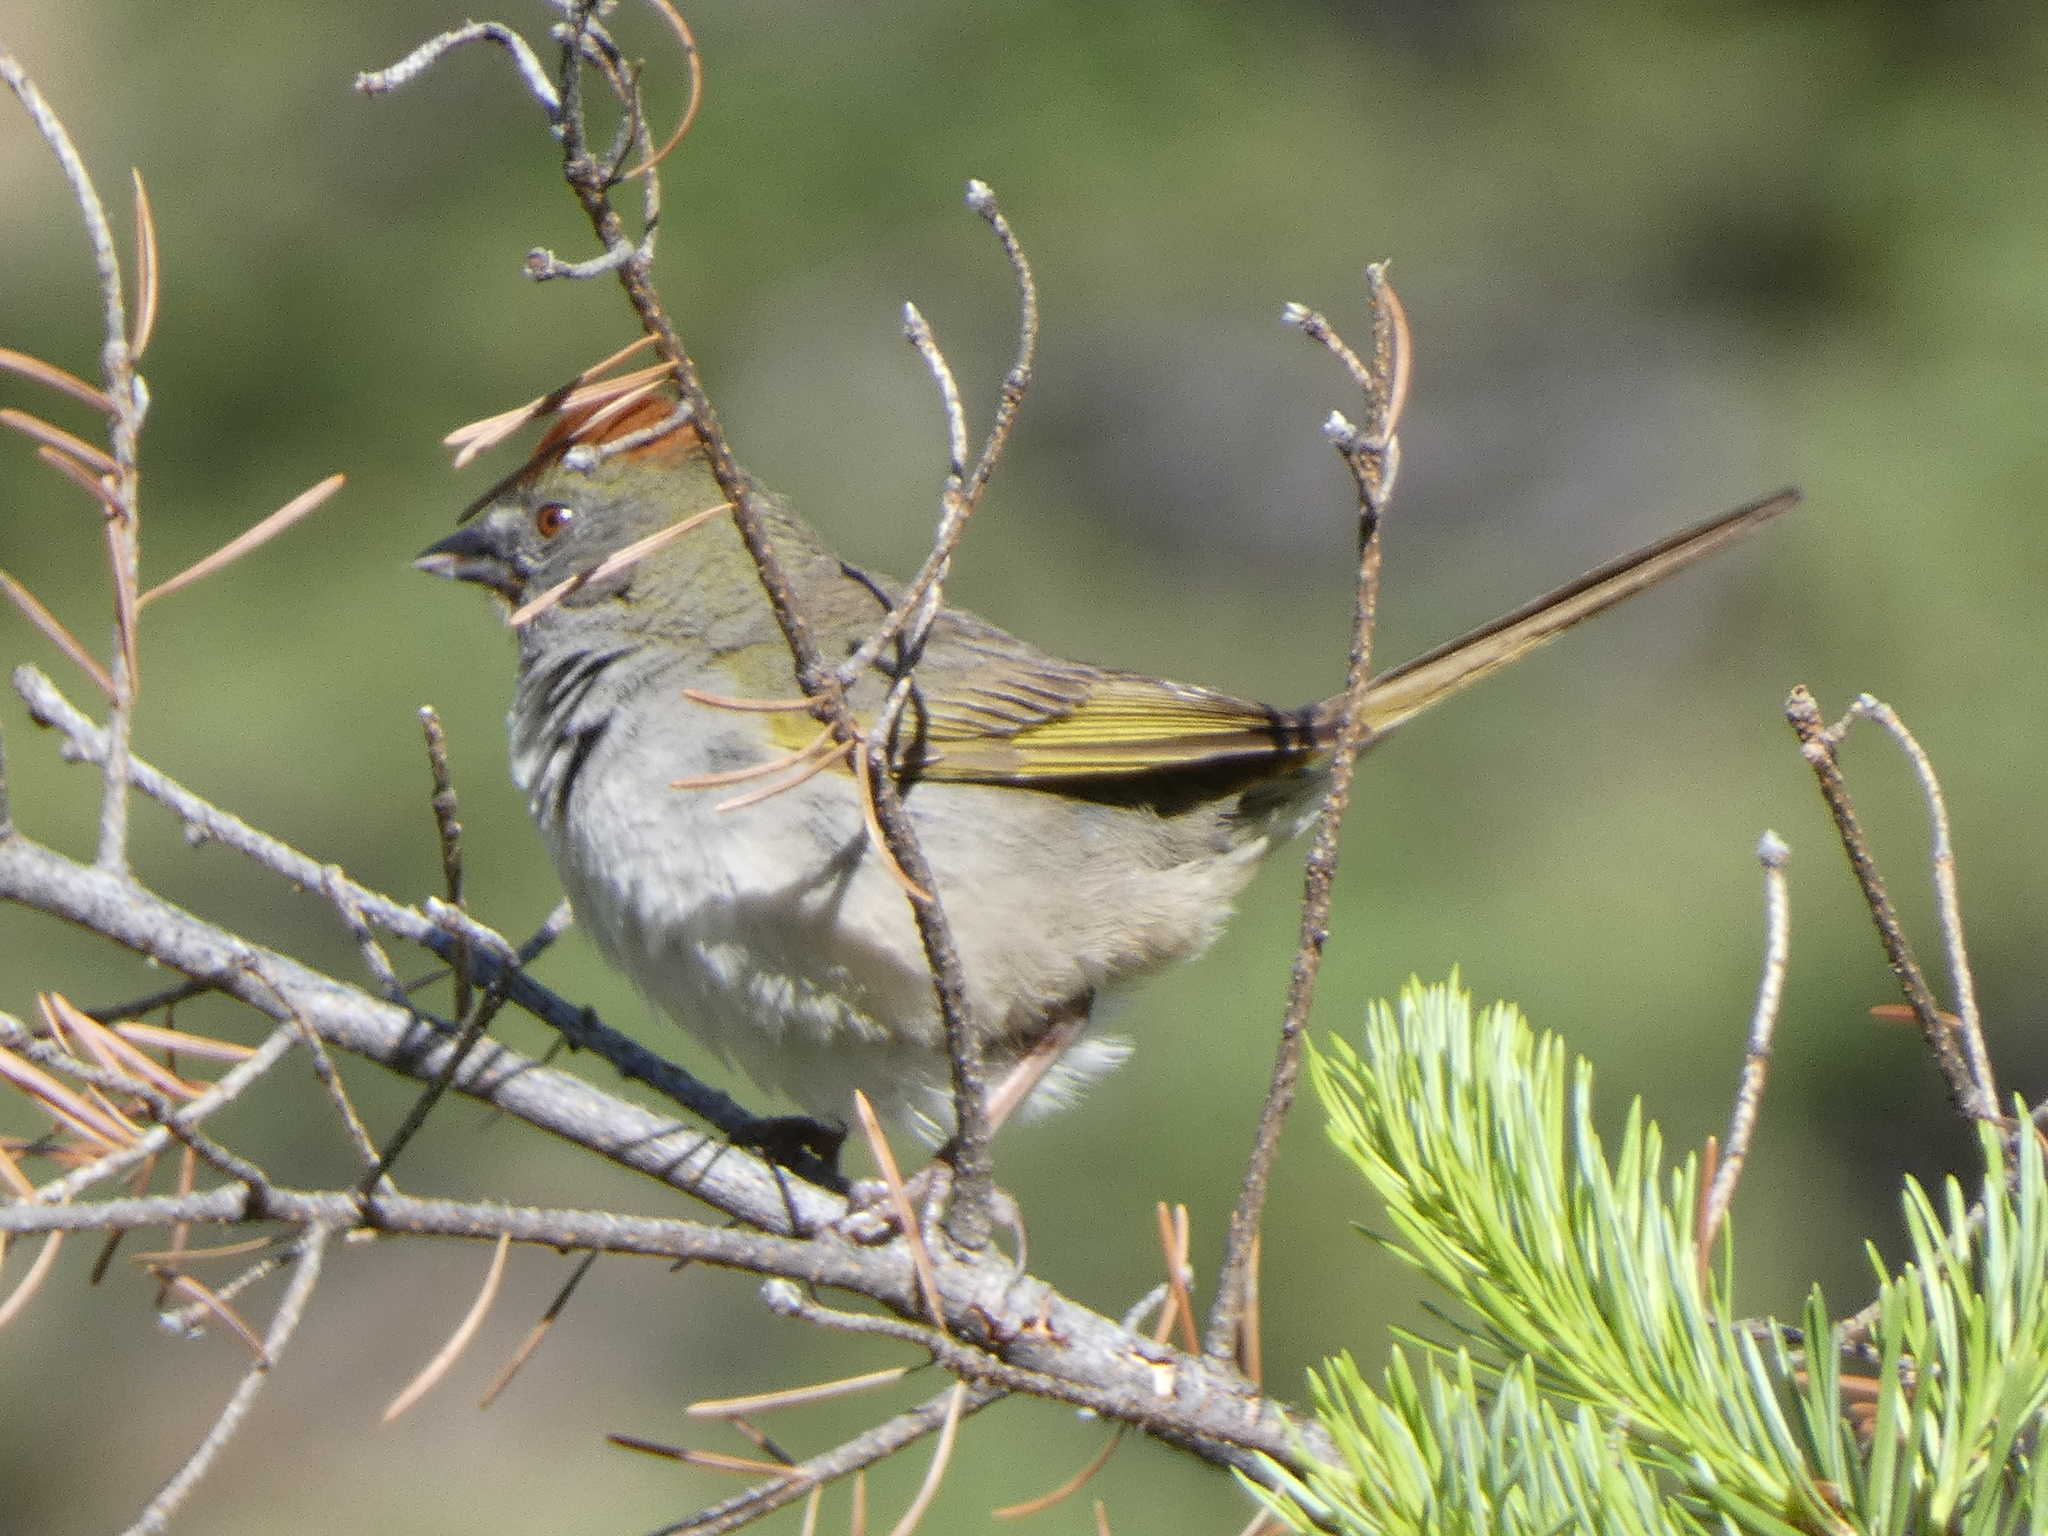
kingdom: Animalia
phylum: Chordata
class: Aves
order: Passeriformes
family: Passerellidae
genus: Pipilo
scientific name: Pipilo chlorurus
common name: Green-tailed towhee
